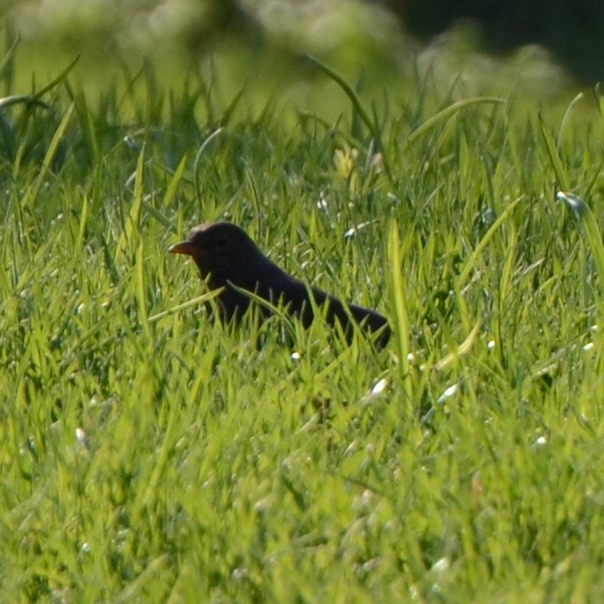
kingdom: Animalia
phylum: Chordata
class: Aves
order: Passeriformes
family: Turdidae
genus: Turdus
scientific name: Turdus merula
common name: Common blackbird
